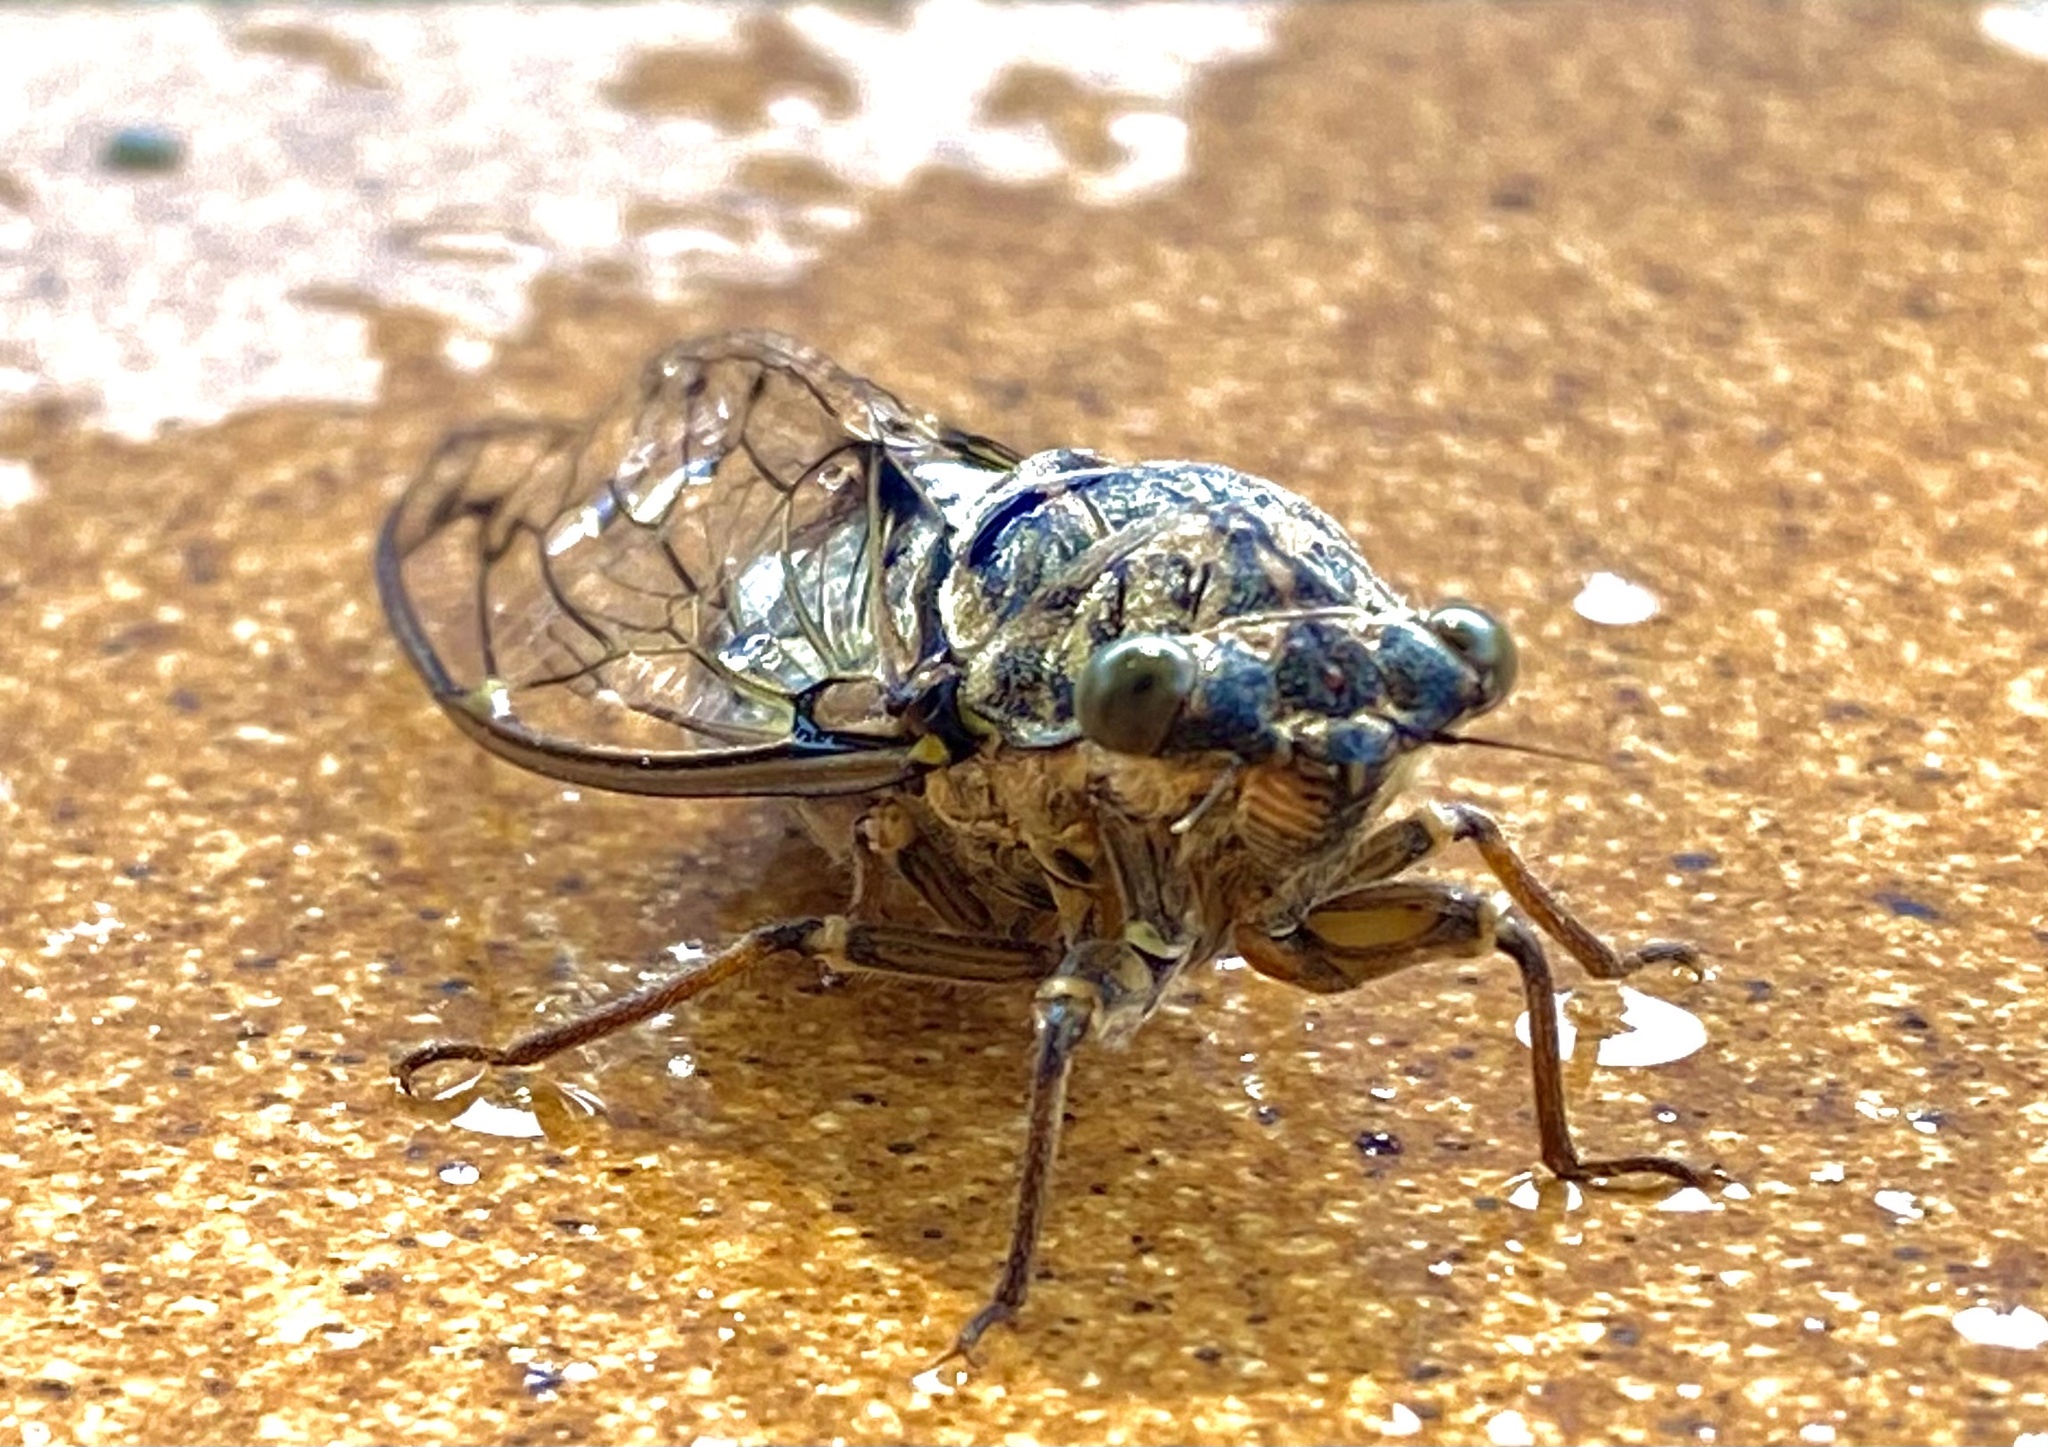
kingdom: Animalia
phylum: Arthropoda
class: Insecta
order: Hemiptera
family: Cicadidae
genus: Cicada
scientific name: Cicada orni
